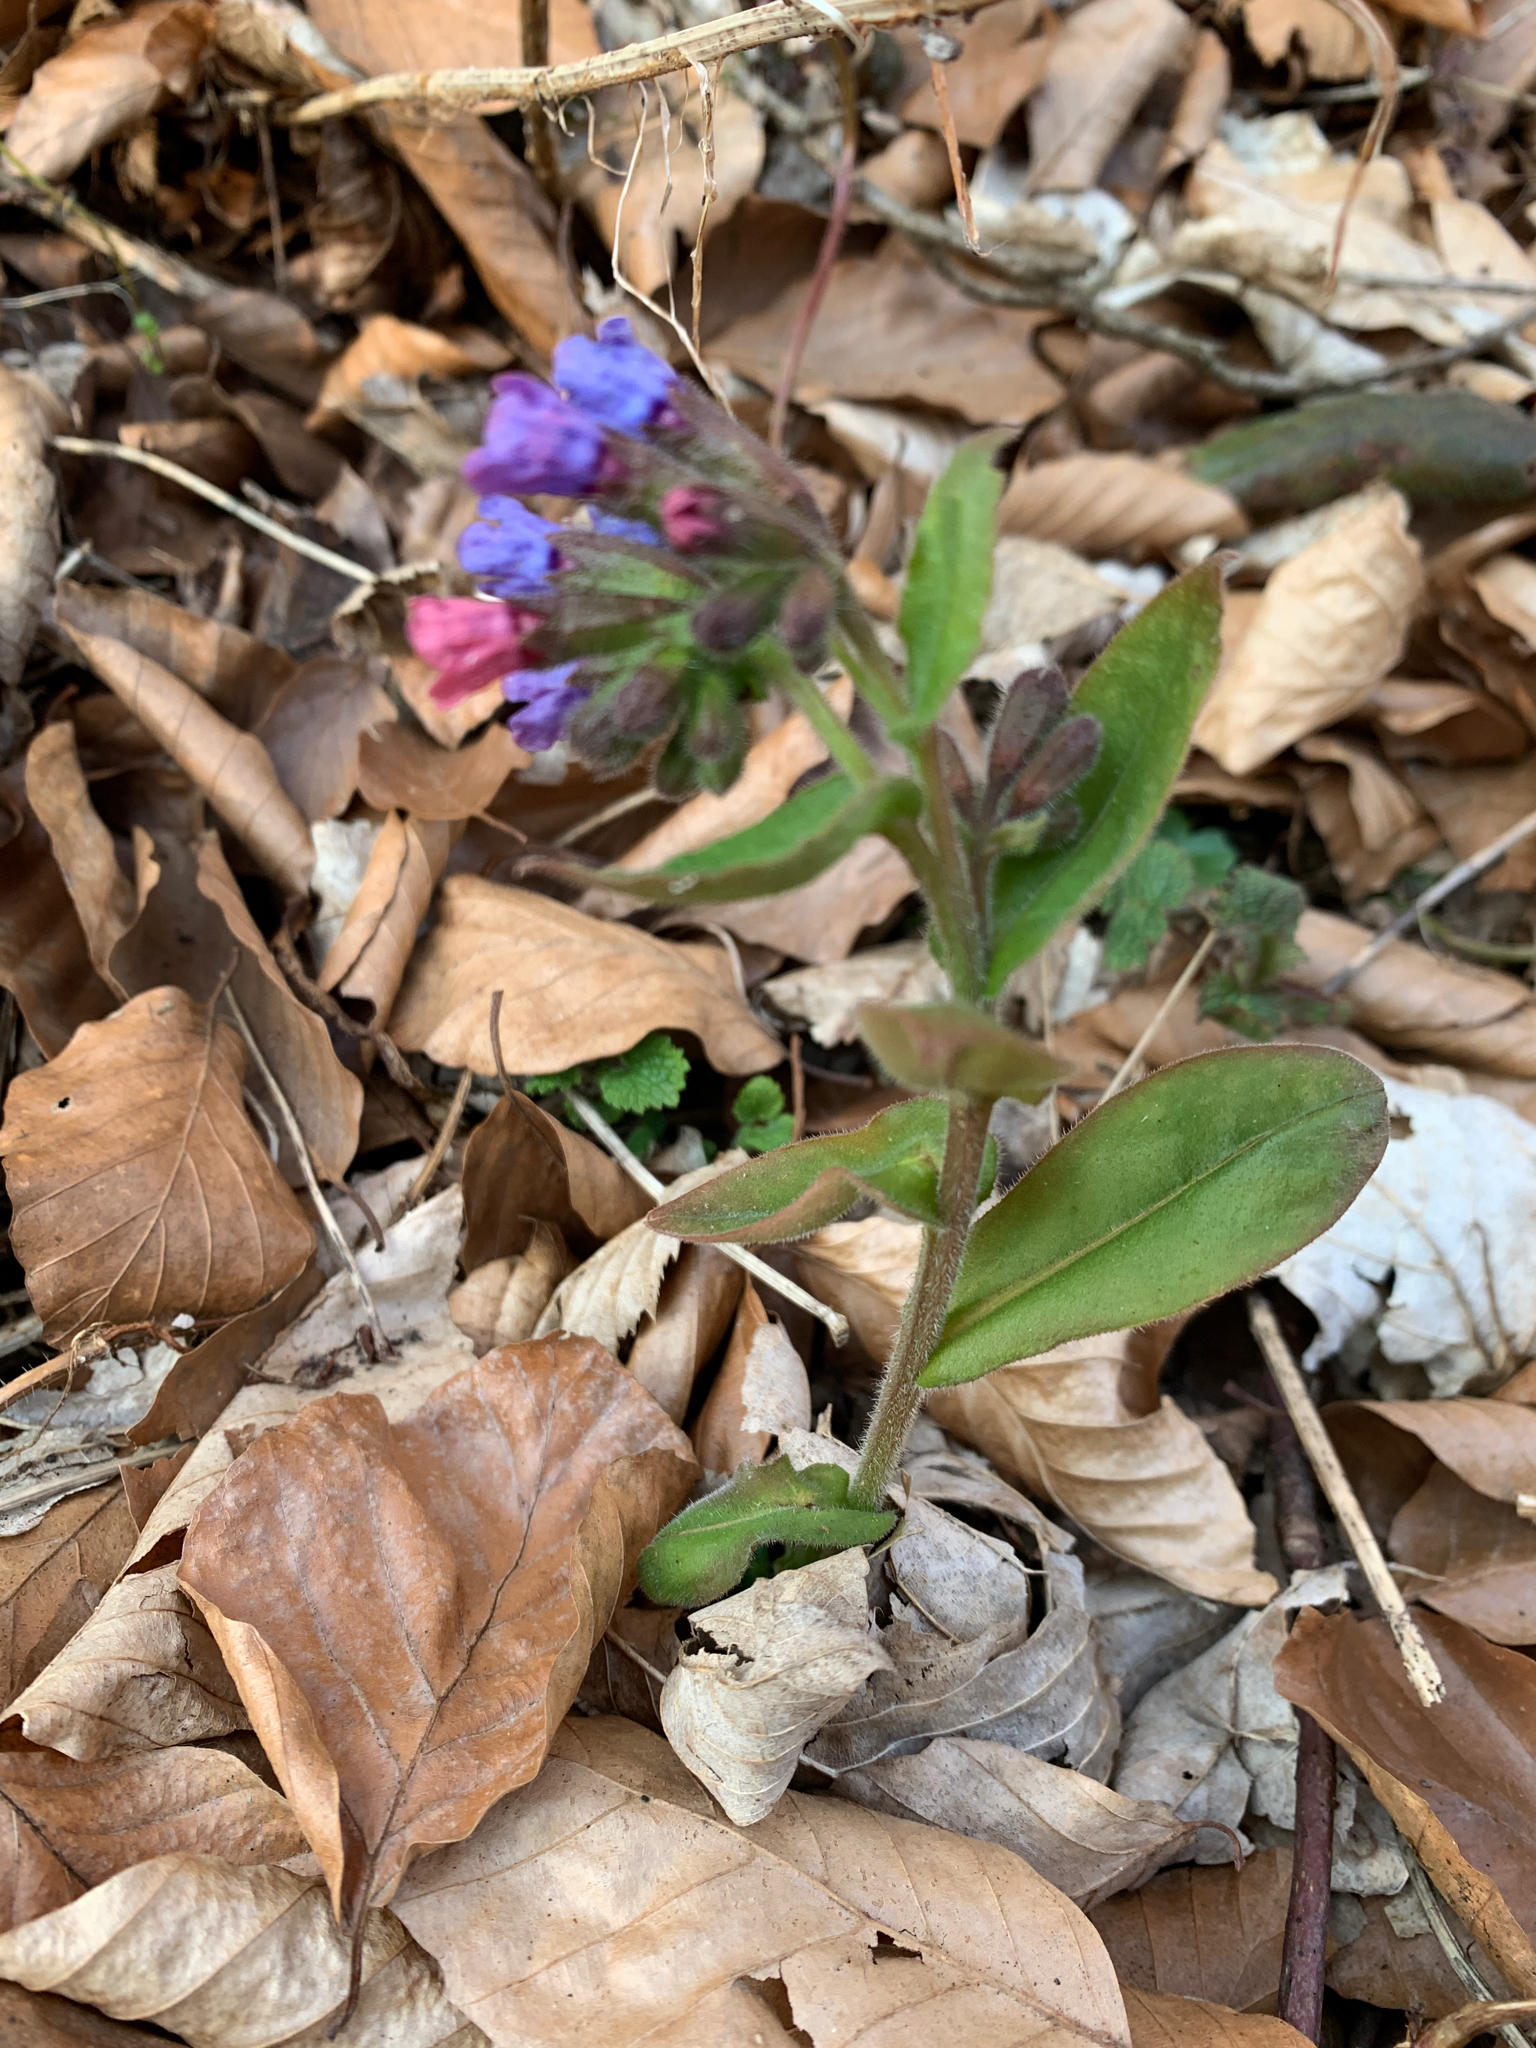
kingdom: Plantae
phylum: Tracheophyta
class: Magnoliopsida
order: Boraginales
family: Boraginaceae
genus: Pulmonaria
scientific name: Pulmonaria officinalis
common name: Lungwort
